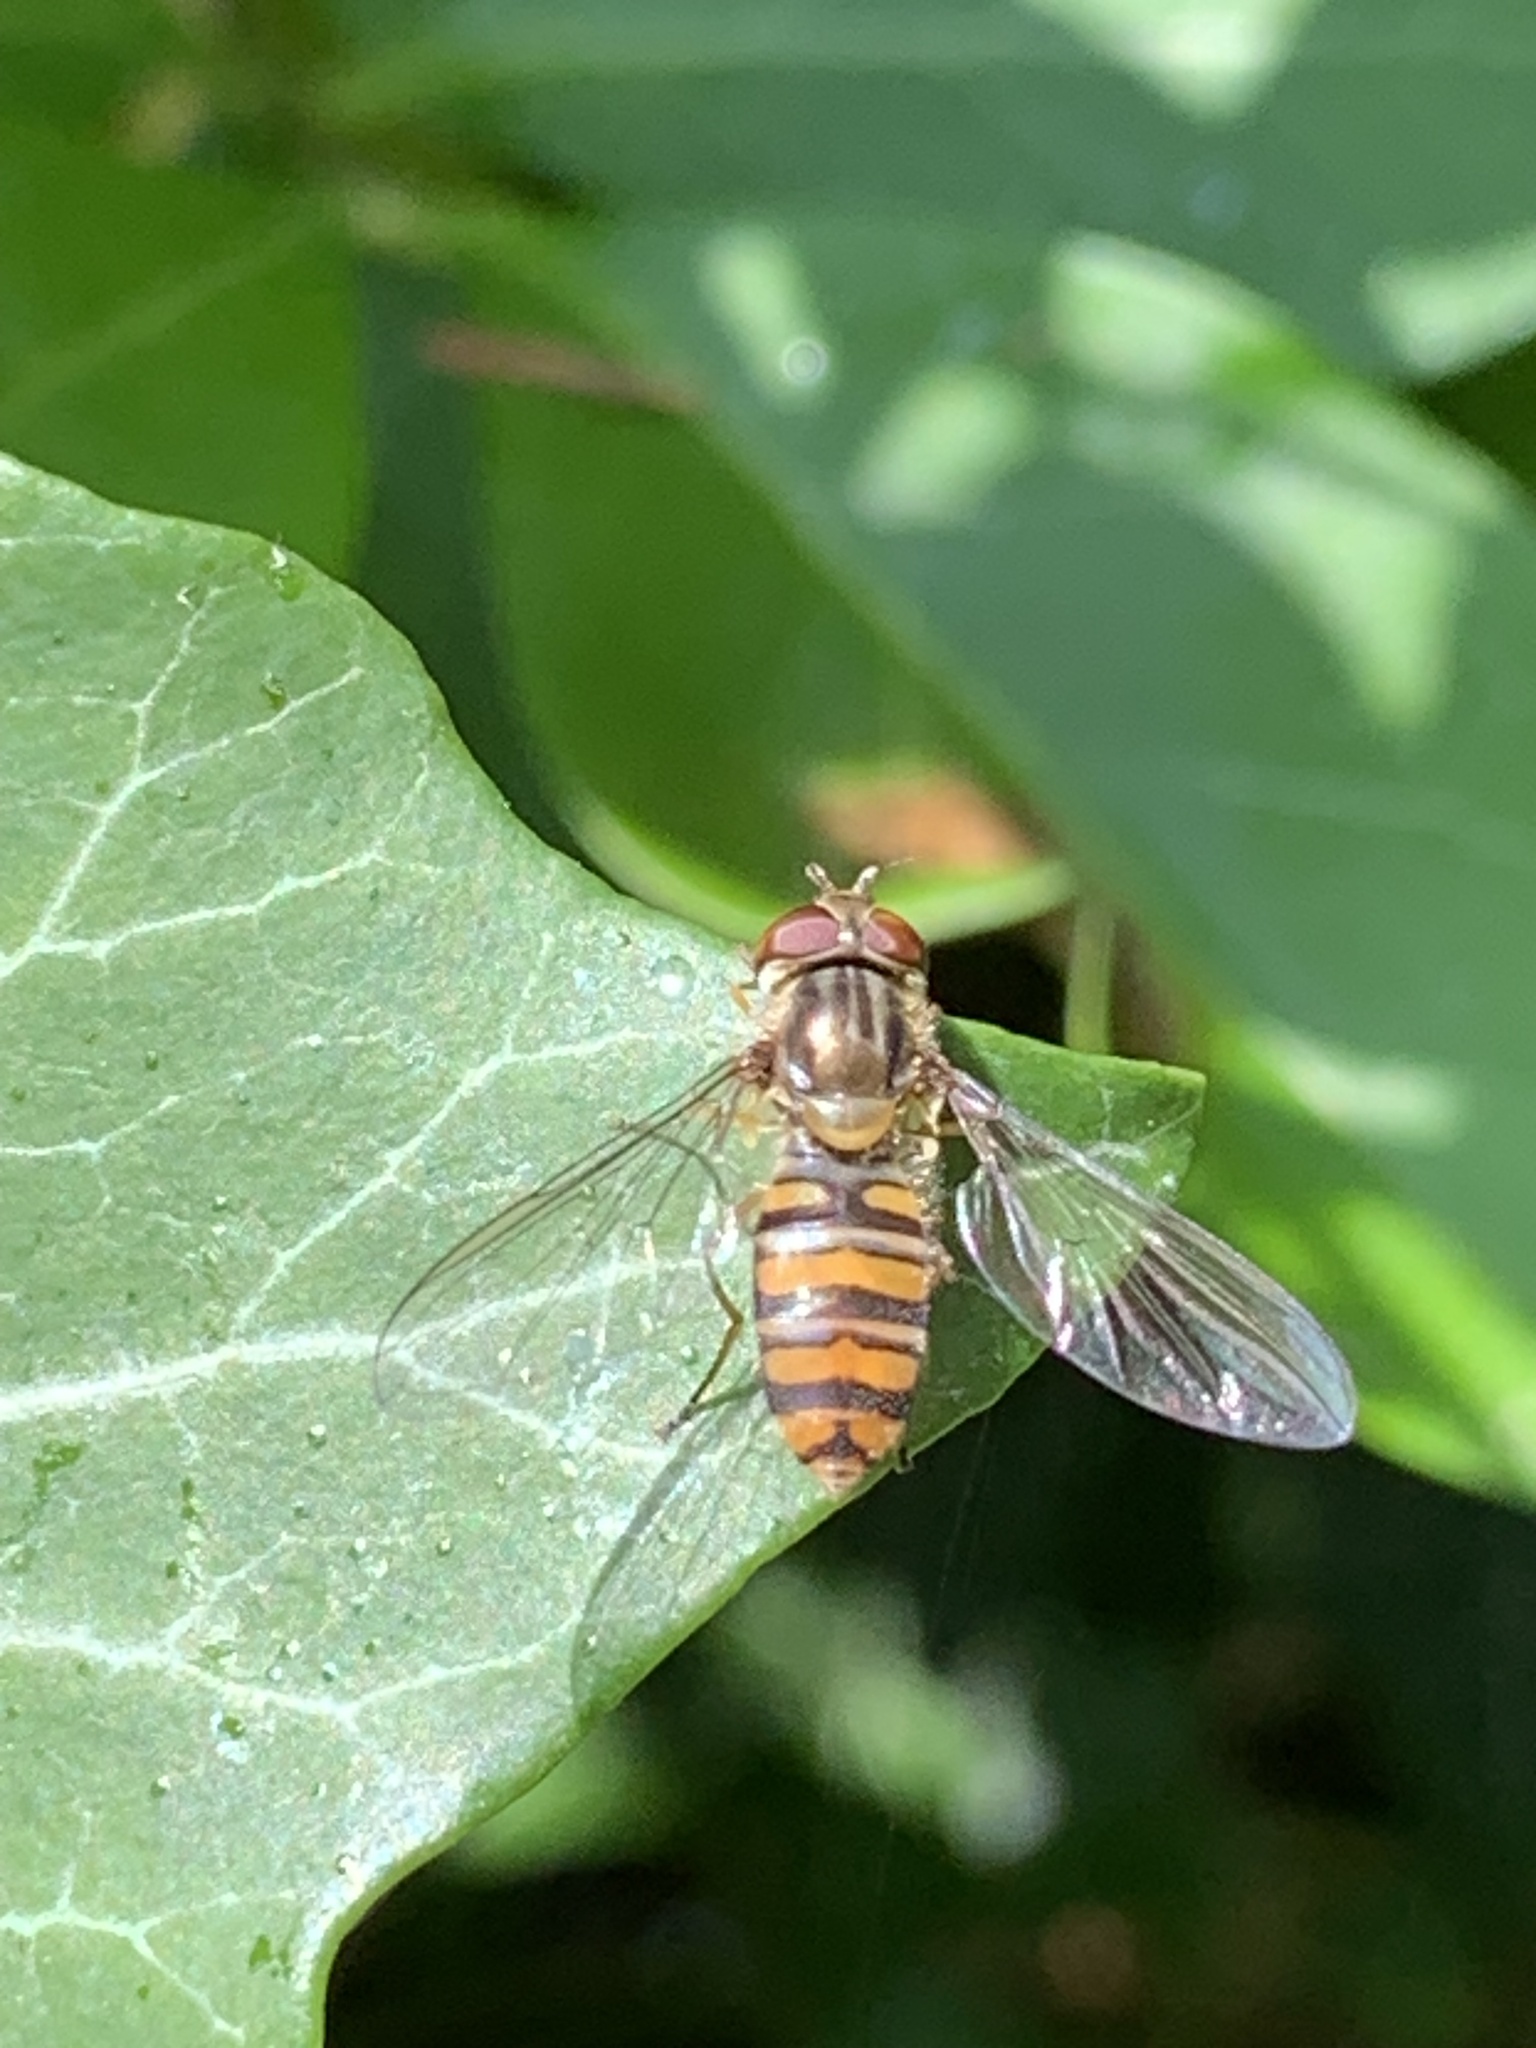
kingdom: Animalia
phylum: Arthropoda
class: Insecta
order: Diptera
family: Syrphidae
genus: Episyrphus
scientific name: Episyrphus balteatus
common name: Marmalade hoverfly
